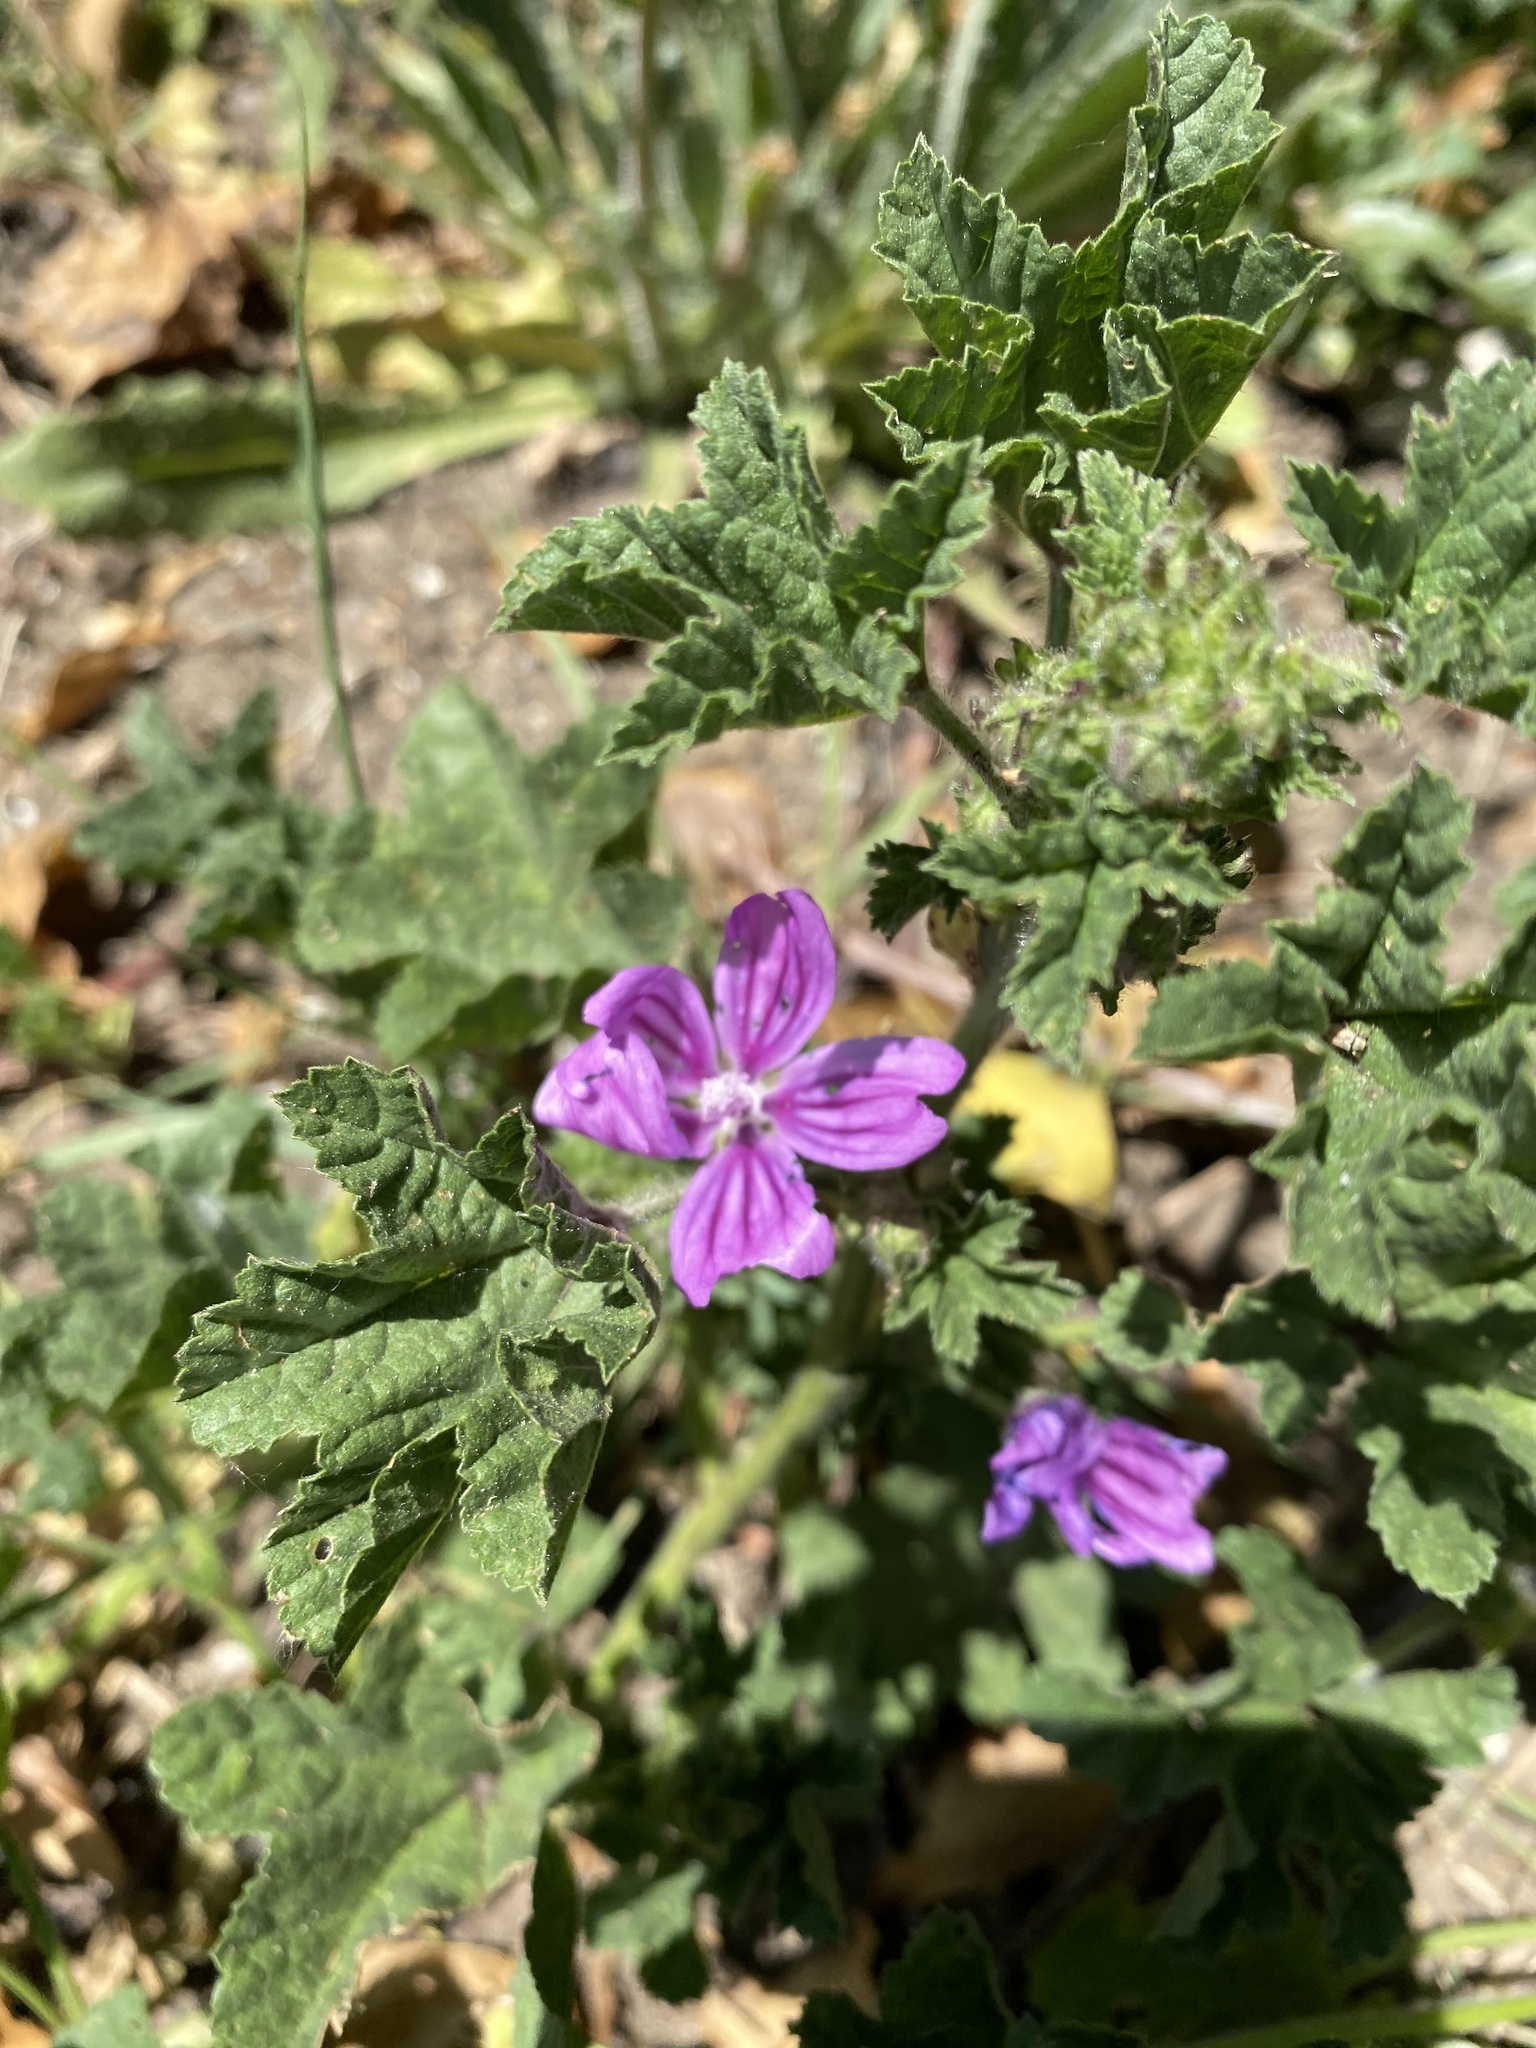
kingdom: Plantae
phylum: Tracheophyta
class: Magnoliopsida
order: Malvales
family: Malvaceae
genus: Malva
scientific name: Malva sylvestris
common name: Common mallow
